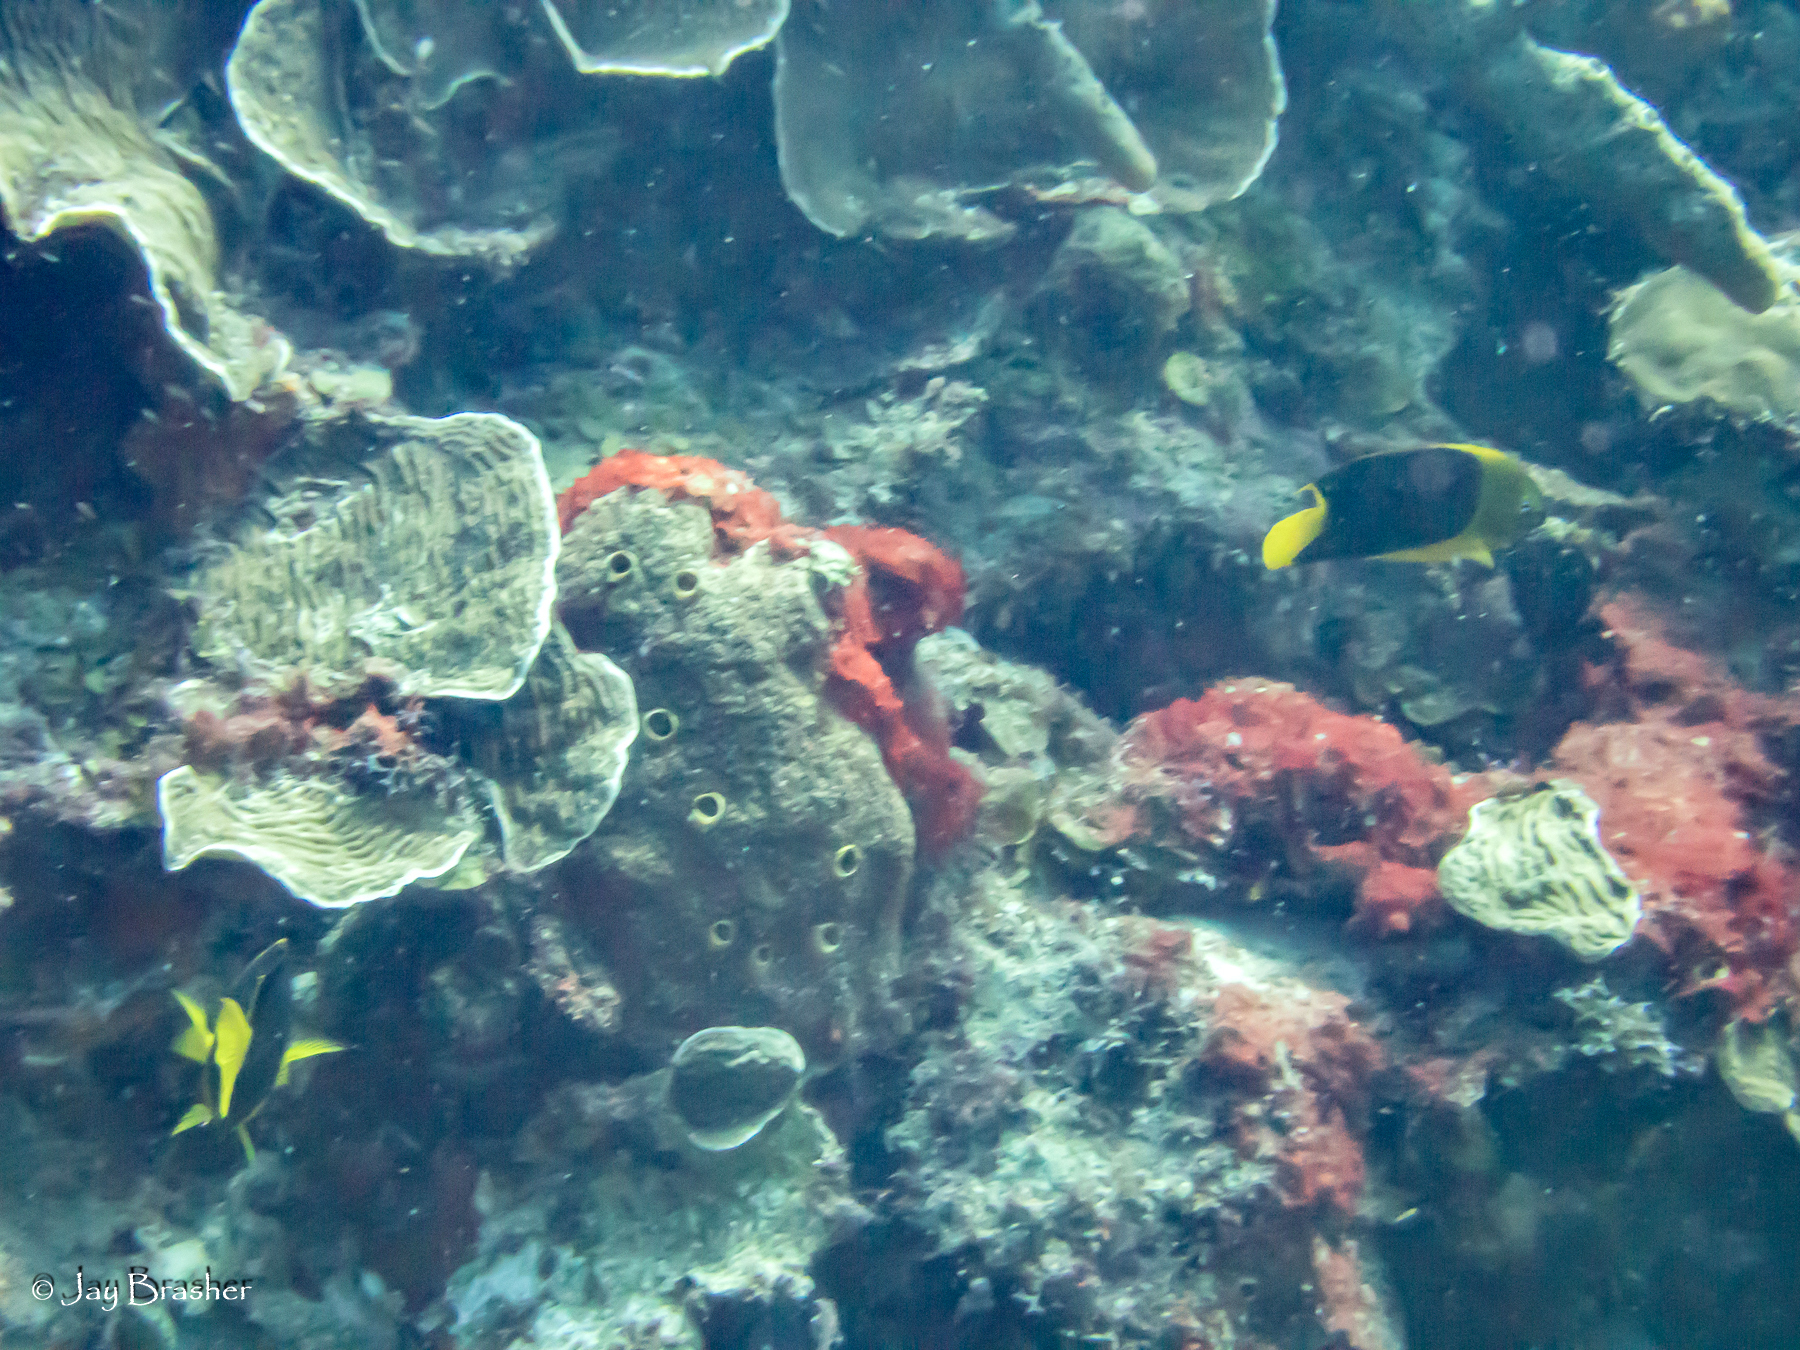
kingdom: Animalia
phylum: Chordata
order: Perciformes
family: Pomacanthidae
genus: Holacanthus
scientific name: Holacanthus tricolor
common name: Rock beauty
